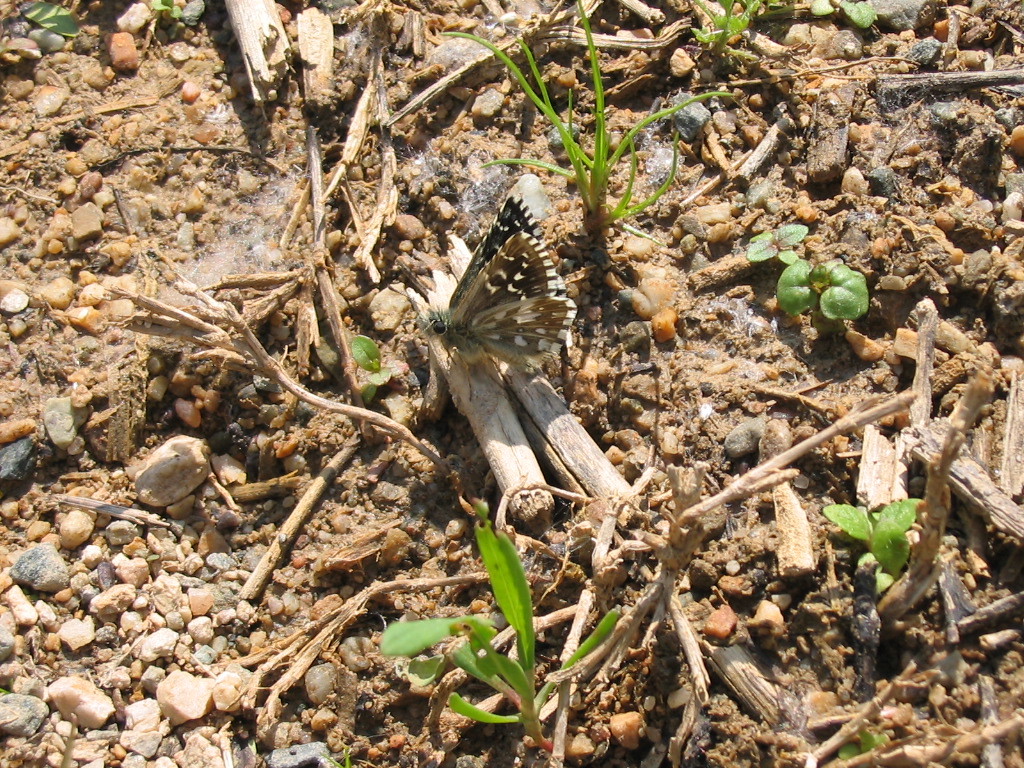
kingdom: Animalia
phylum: Arthropoda
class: Insecta
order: Lepidoptera
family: Hesperiidae
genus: Pyrgus
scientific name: Pyrgus malvae
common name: Grizzled skipper
